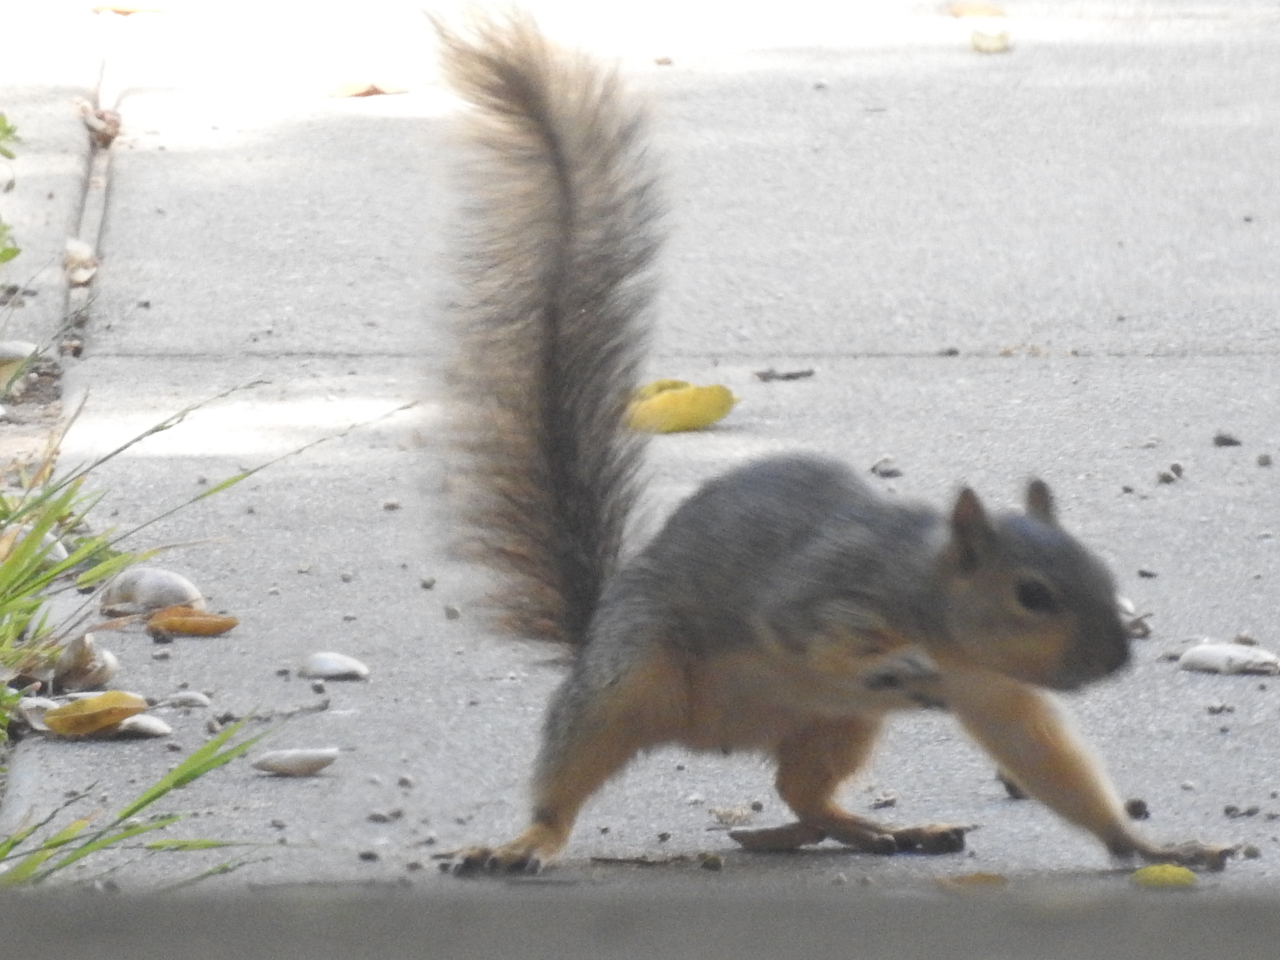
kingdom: Animalia
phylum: Chordata
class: Mammalia
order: Rodentia
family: Sciuridae
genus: Sciurus
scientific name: Sciurus niger
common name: Fox squirrel
